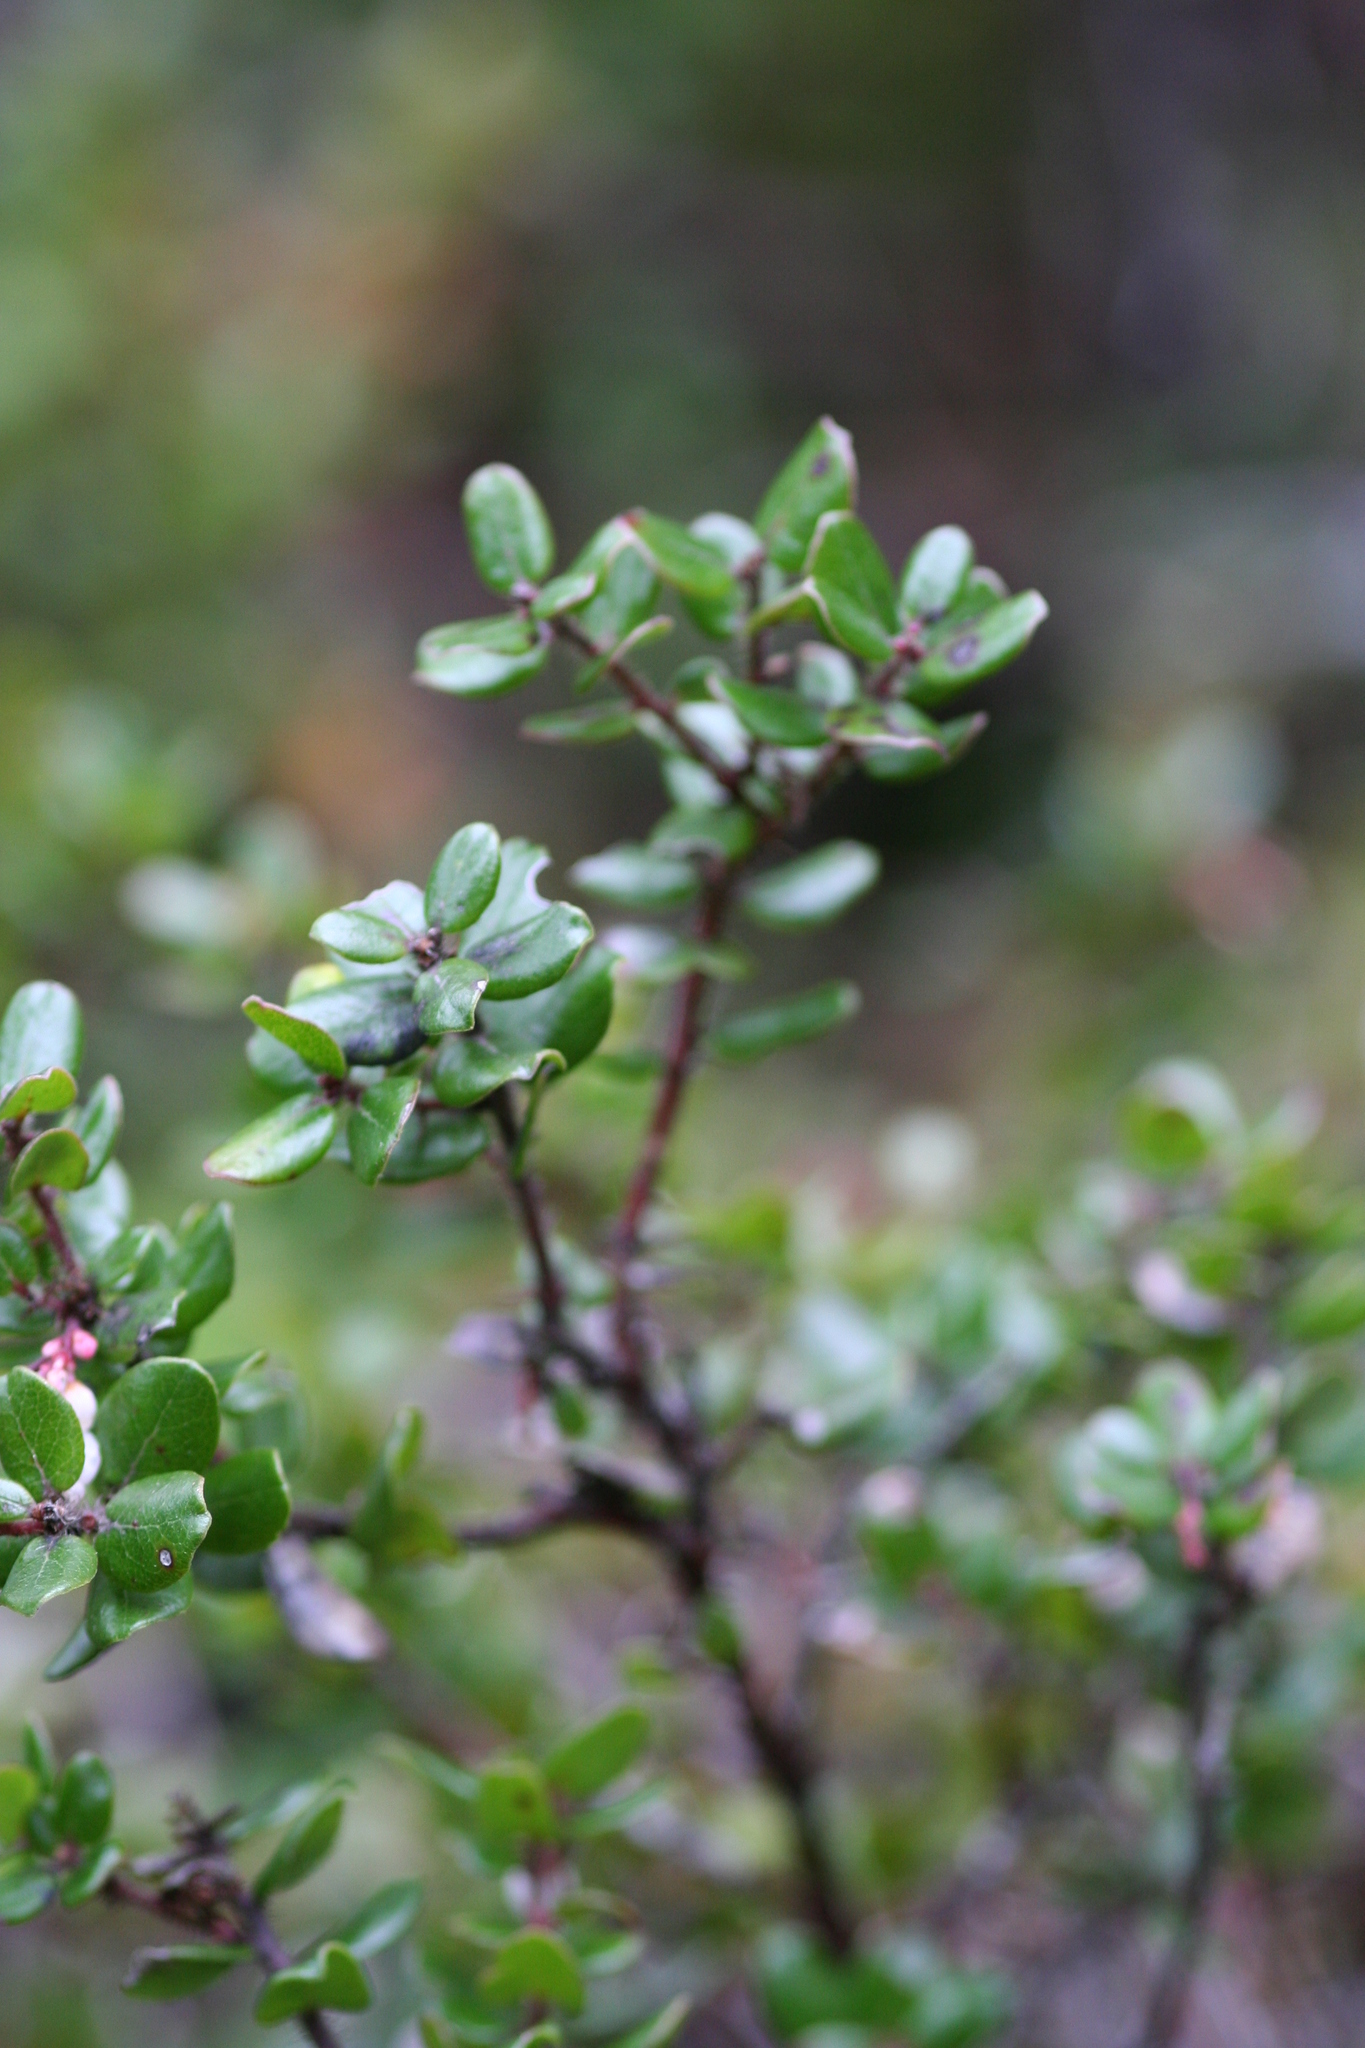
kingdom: Plantae
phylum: Tracheophyta
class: Magnoliopsida
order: Ericales
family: Ericaceae
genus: Arctostaphylos
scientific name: Arctostaphylos nummularia
